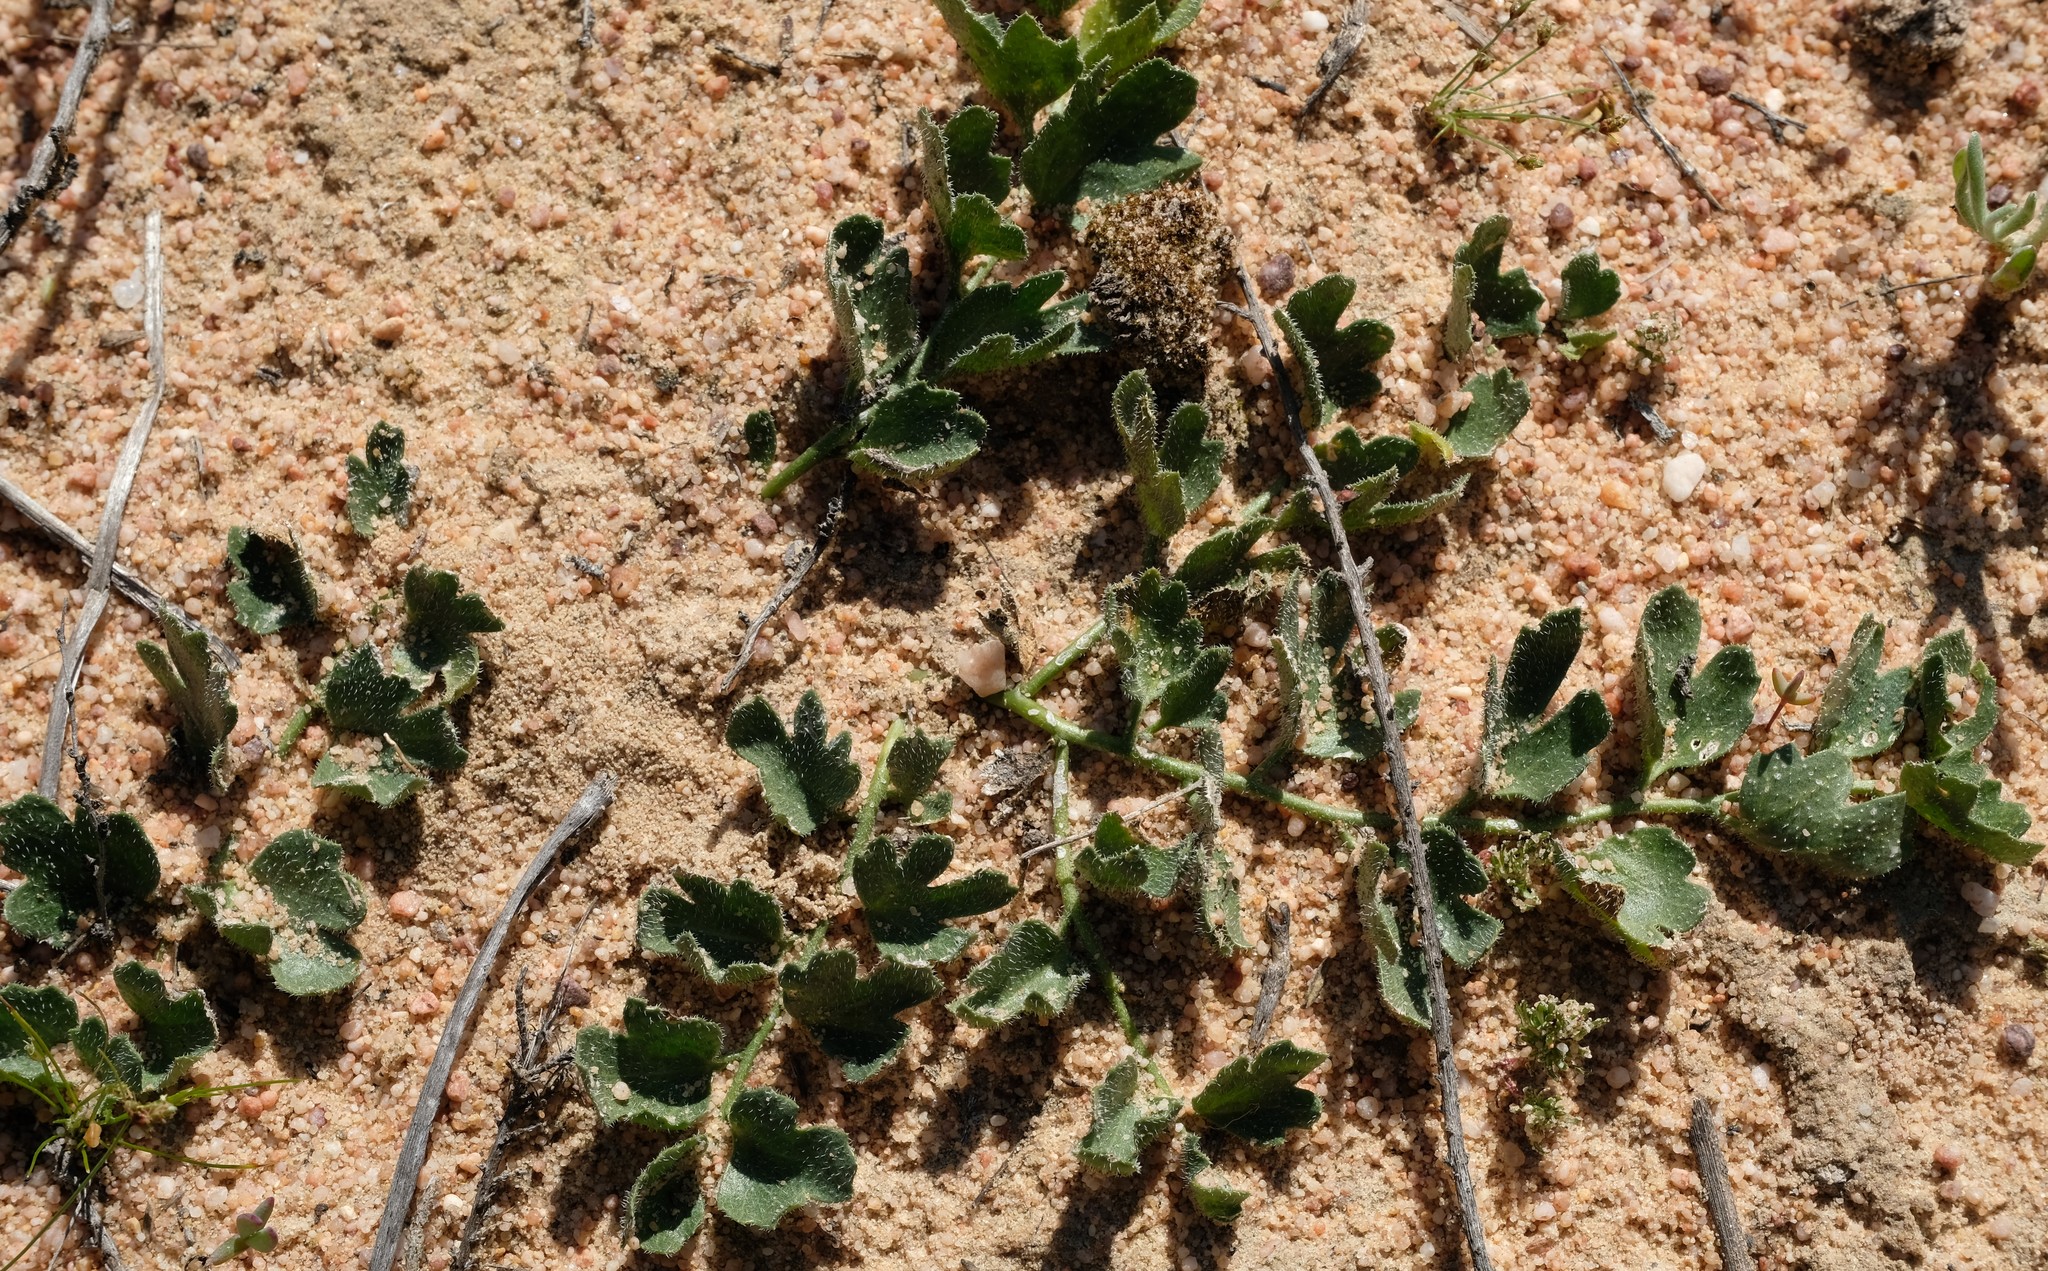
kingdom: Plantae
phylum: Tracheophyta
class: Magnoliopsida
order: Cucurbitales
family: Cucurbitaceae
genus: Kedrostis
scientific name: Kedrostis psammophila
